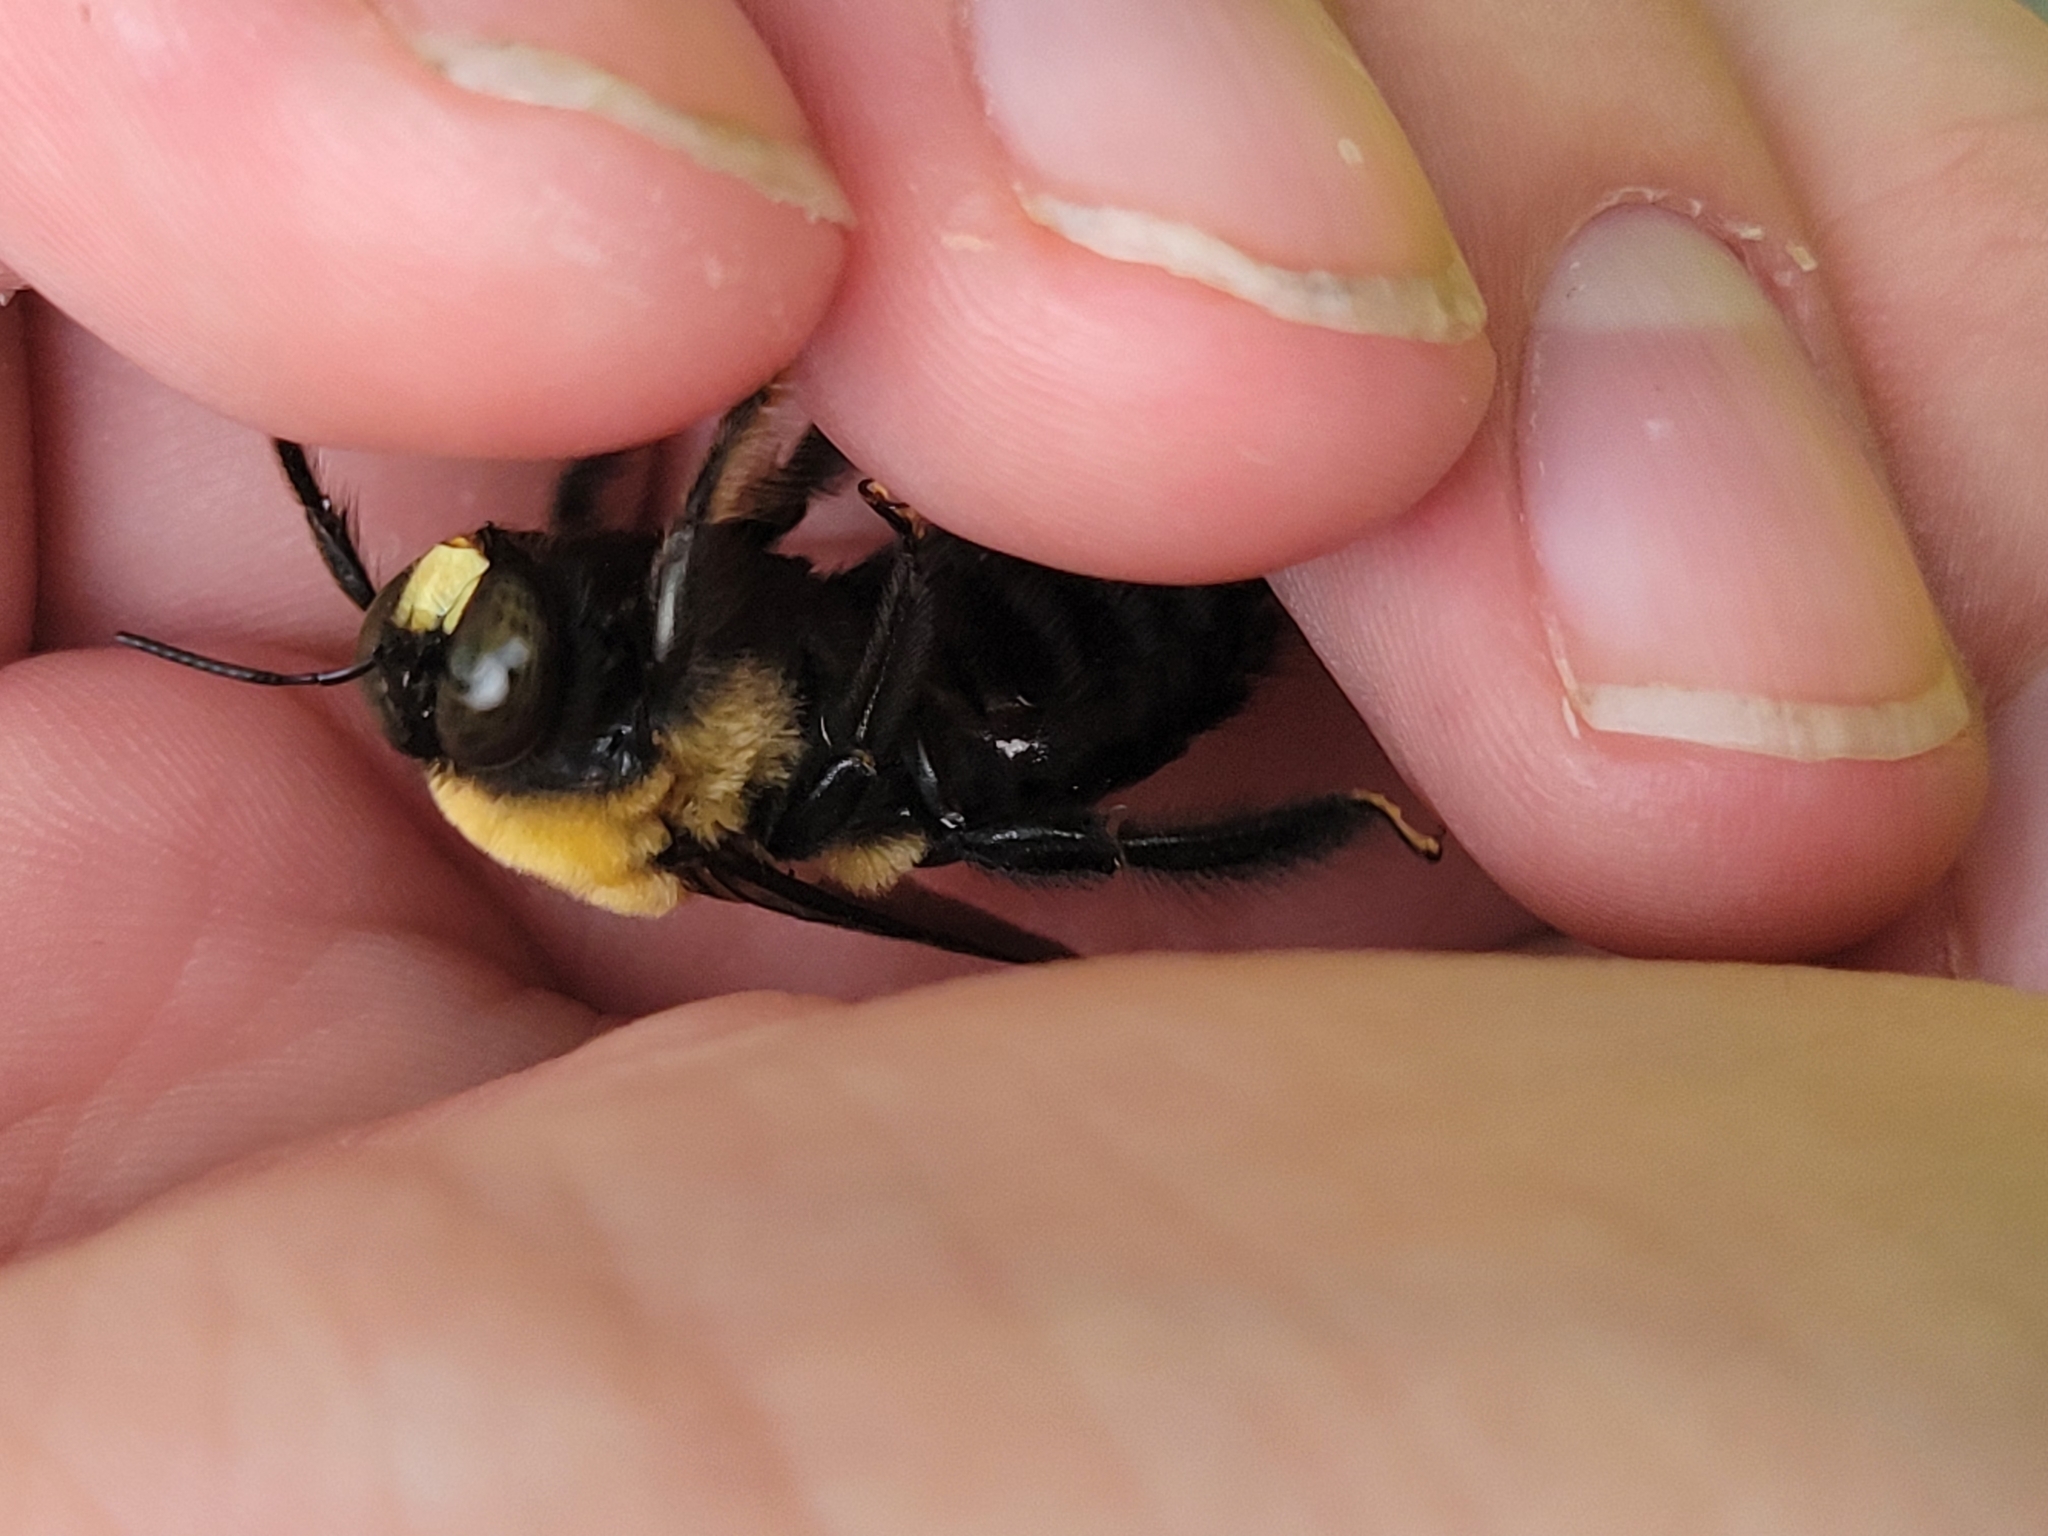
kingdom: Animalia
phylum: Arthropoda
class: Insecta
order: Hymenoptera
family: Apidae
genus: Xylocopa
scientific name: Xylocopa virginica
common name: Carpenter bee
